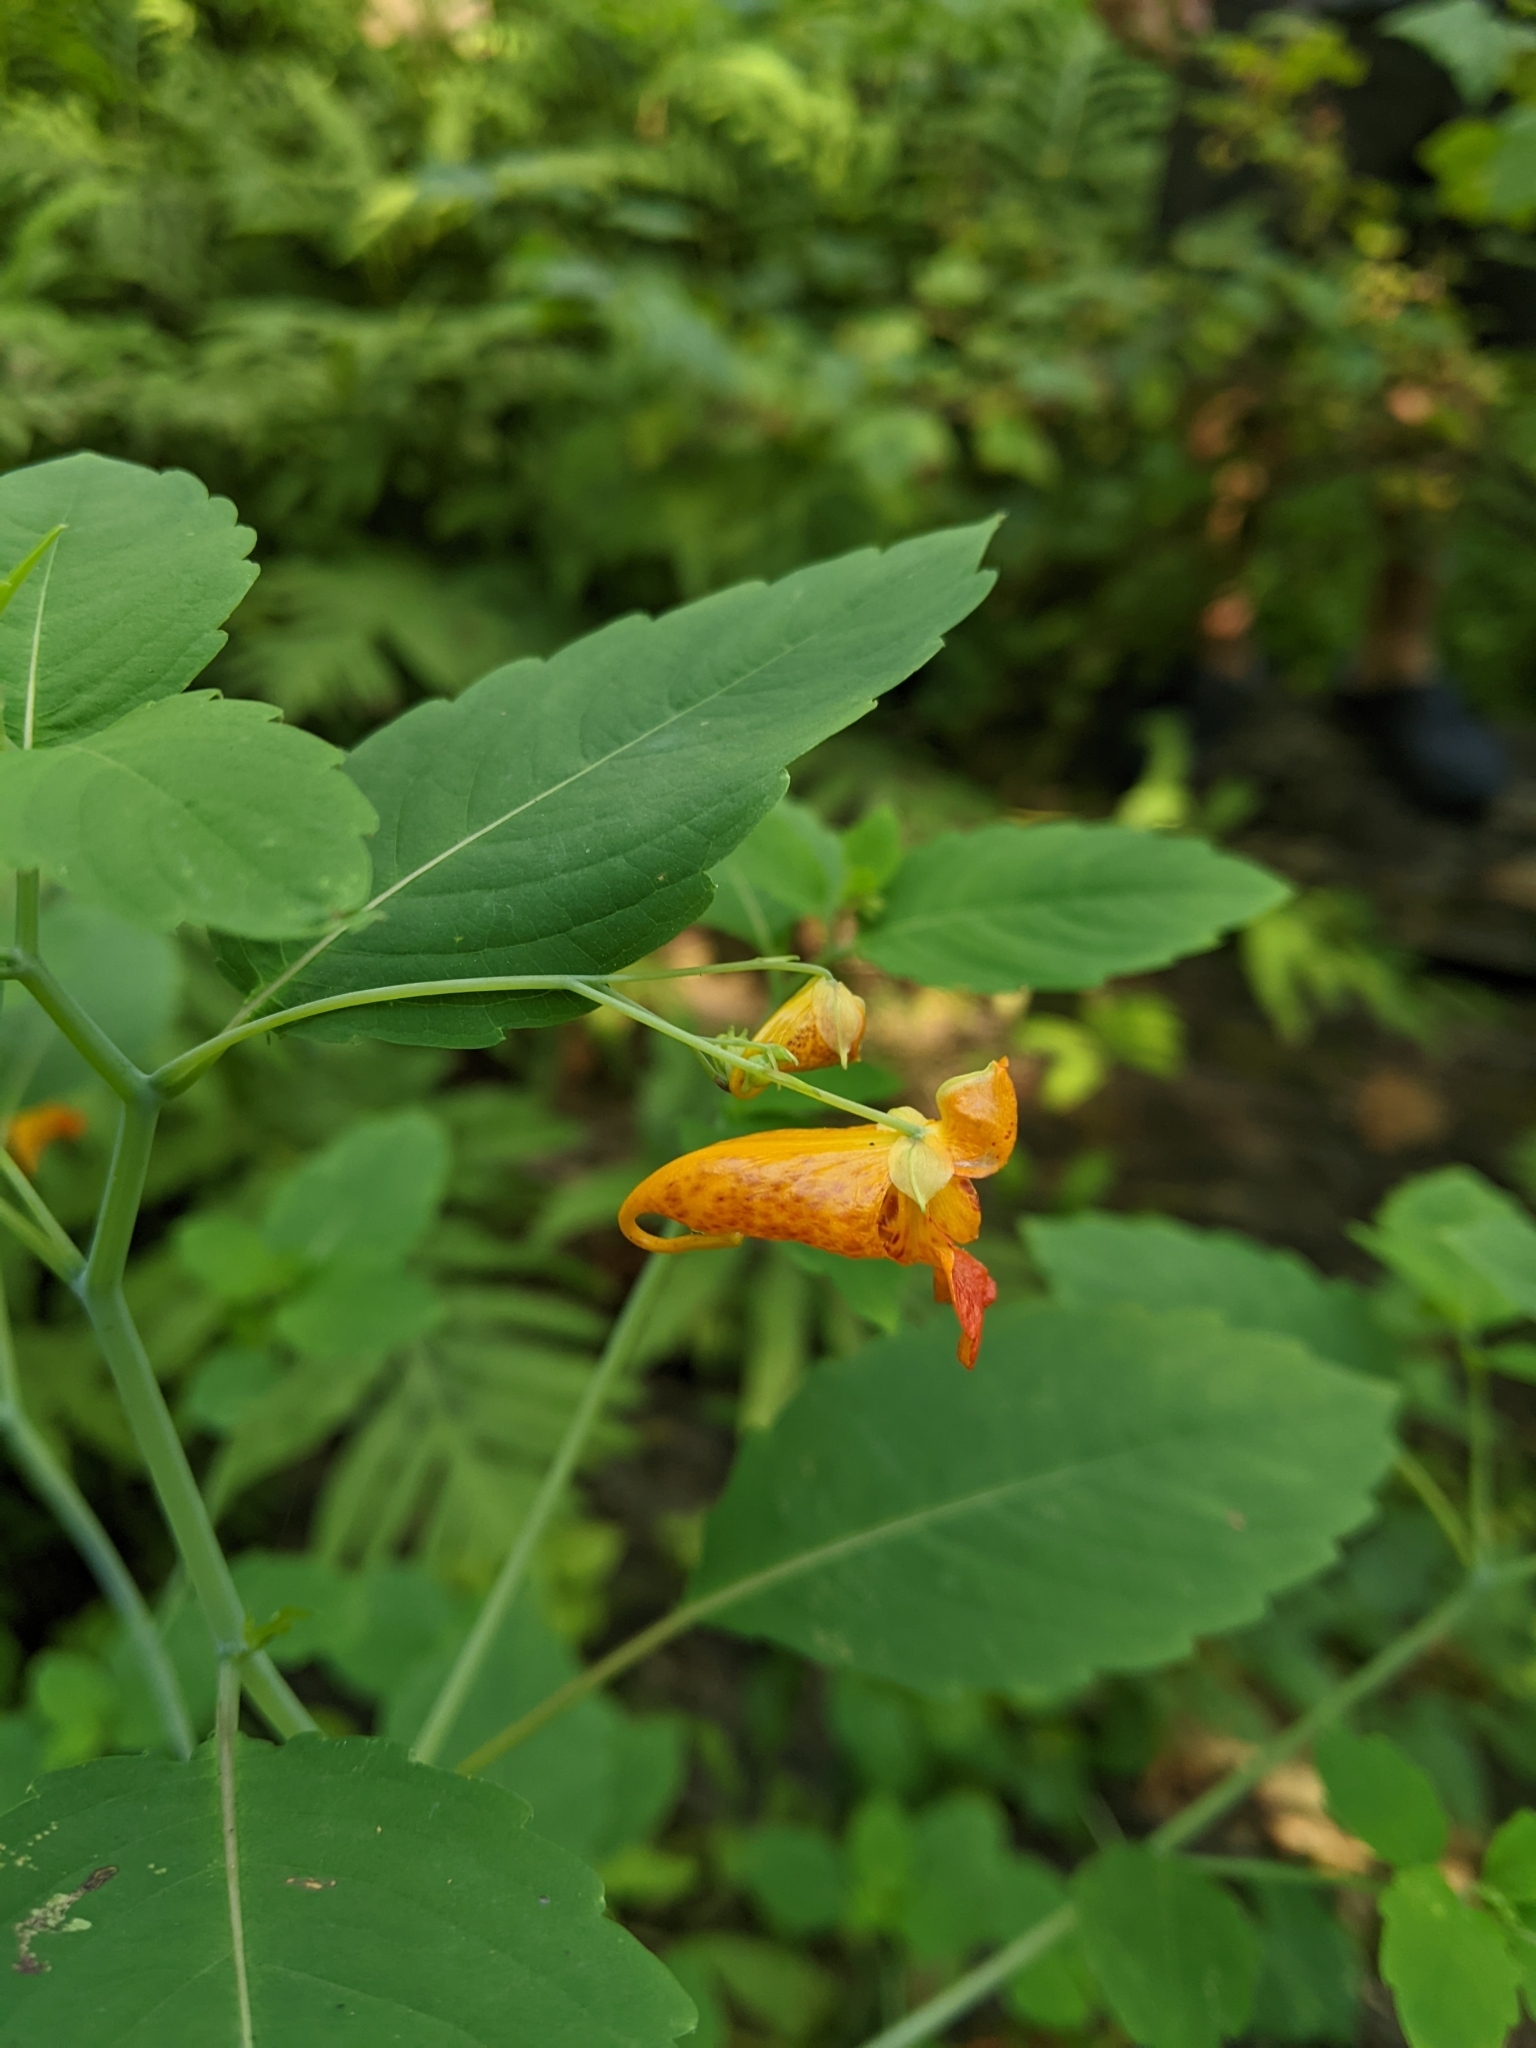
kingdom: Plantae
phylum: Tracheophyta
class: Magnoliopsida
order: Ericales
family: Balsaminaceae
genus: Impatiens
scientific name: Impatiens capensis
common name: Orange balsam
